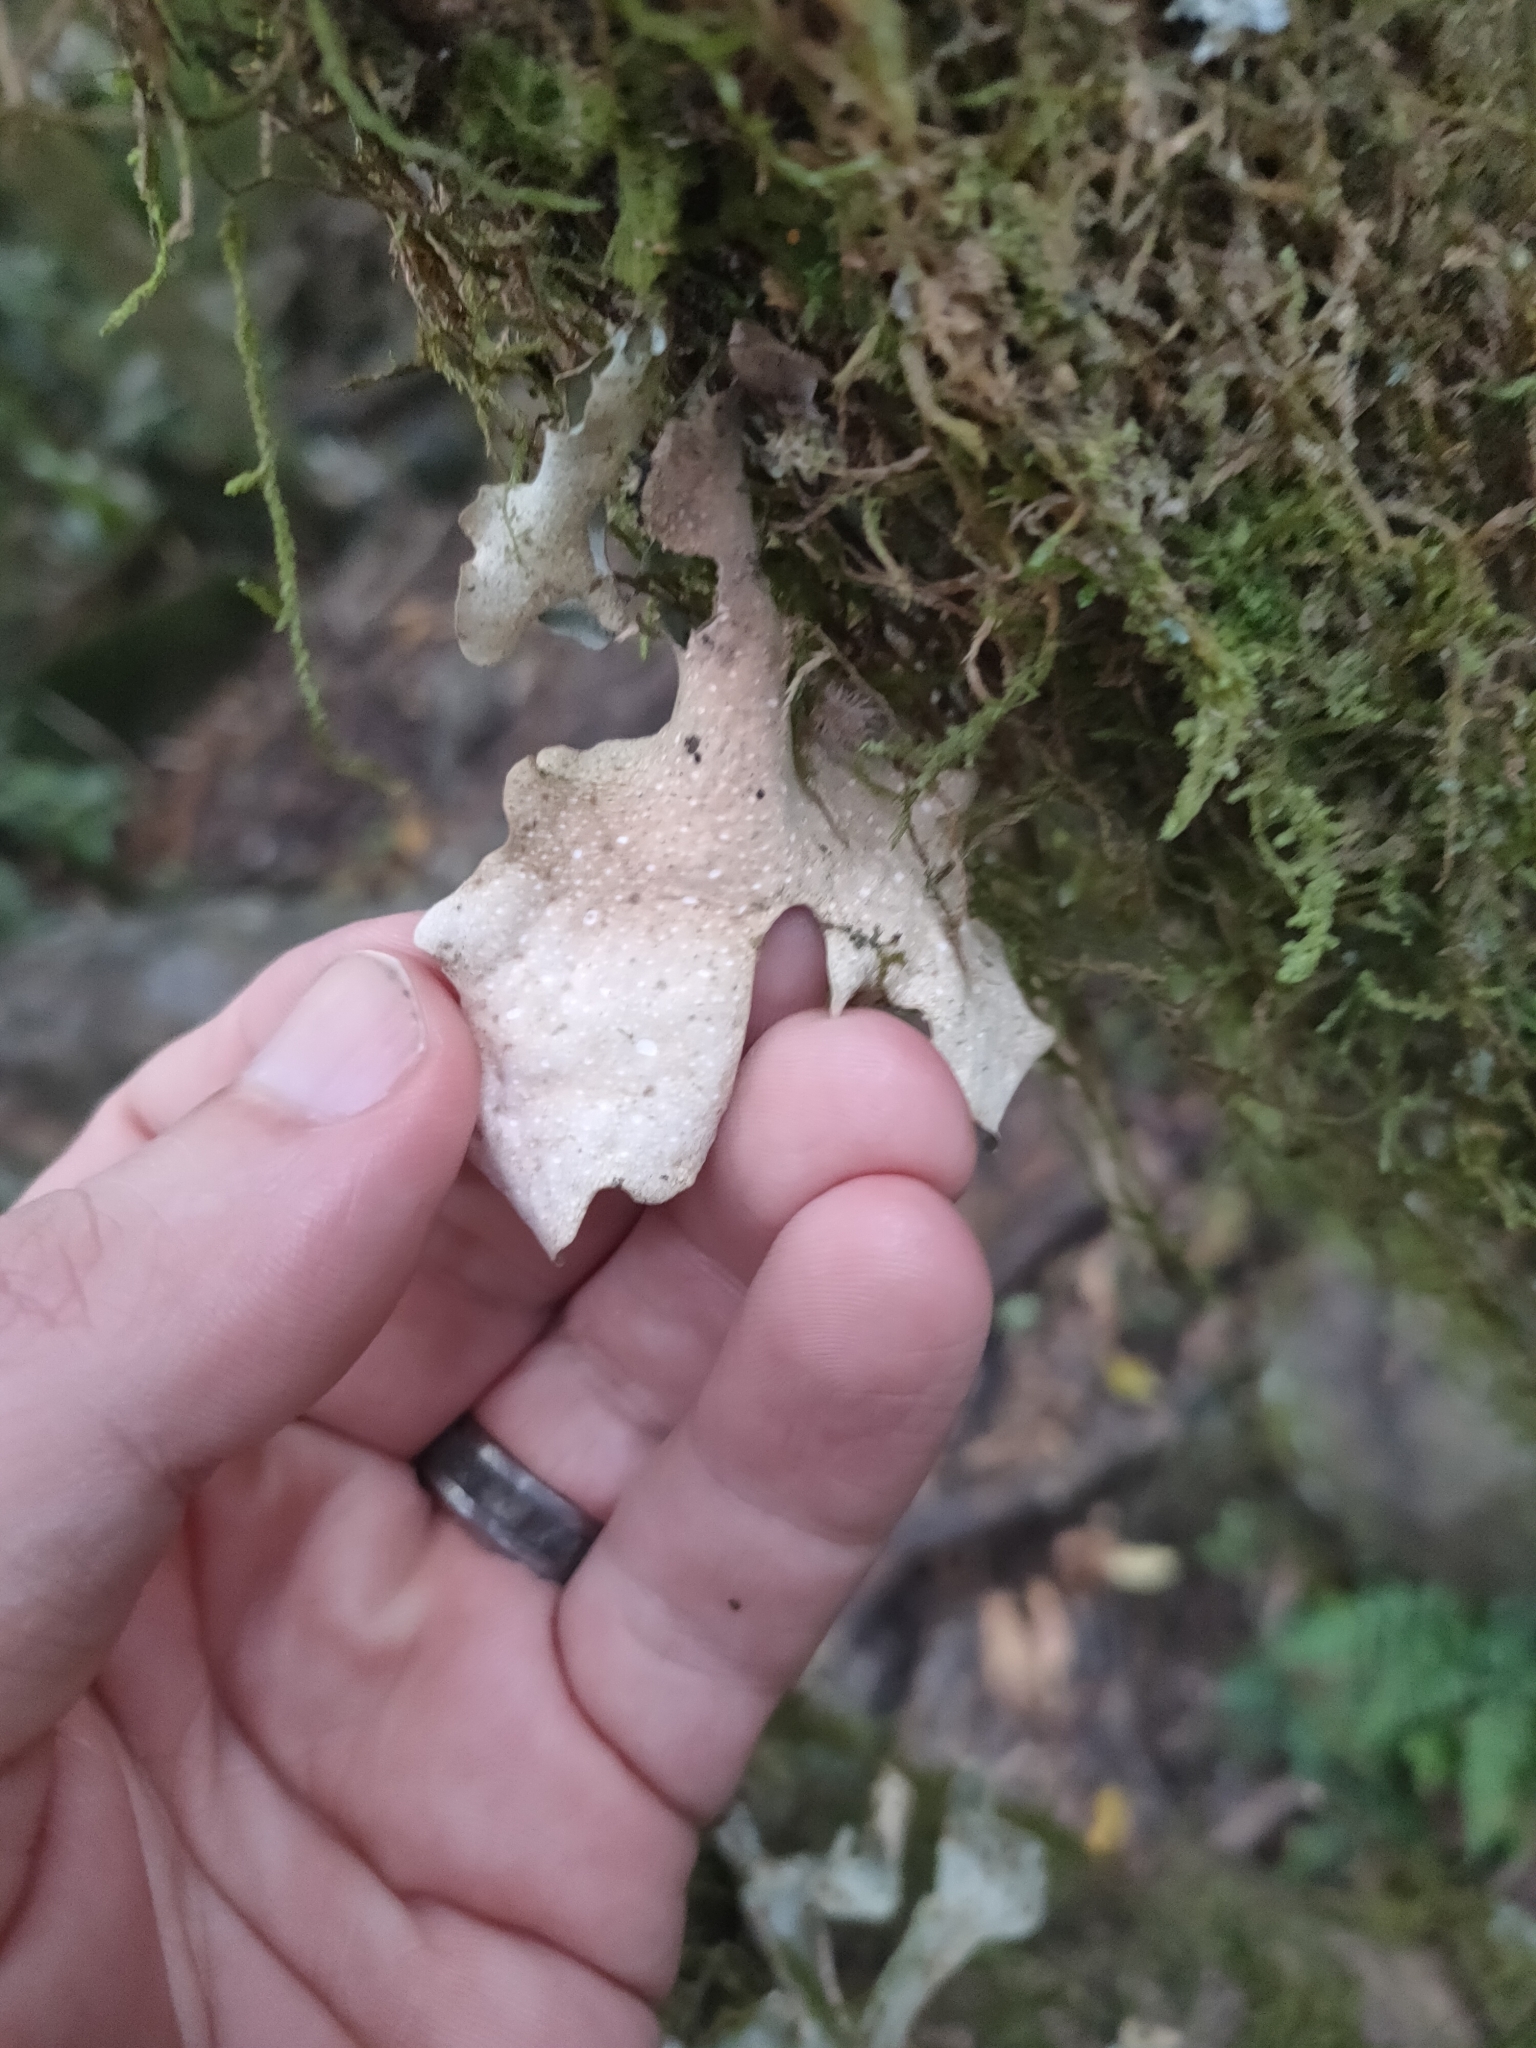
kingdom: Fungi
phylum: Ascomycota
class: Lecanoromycetes
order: Peltigerales
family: Lobariaceae
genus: Sticta
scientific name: Sticta latifrons
